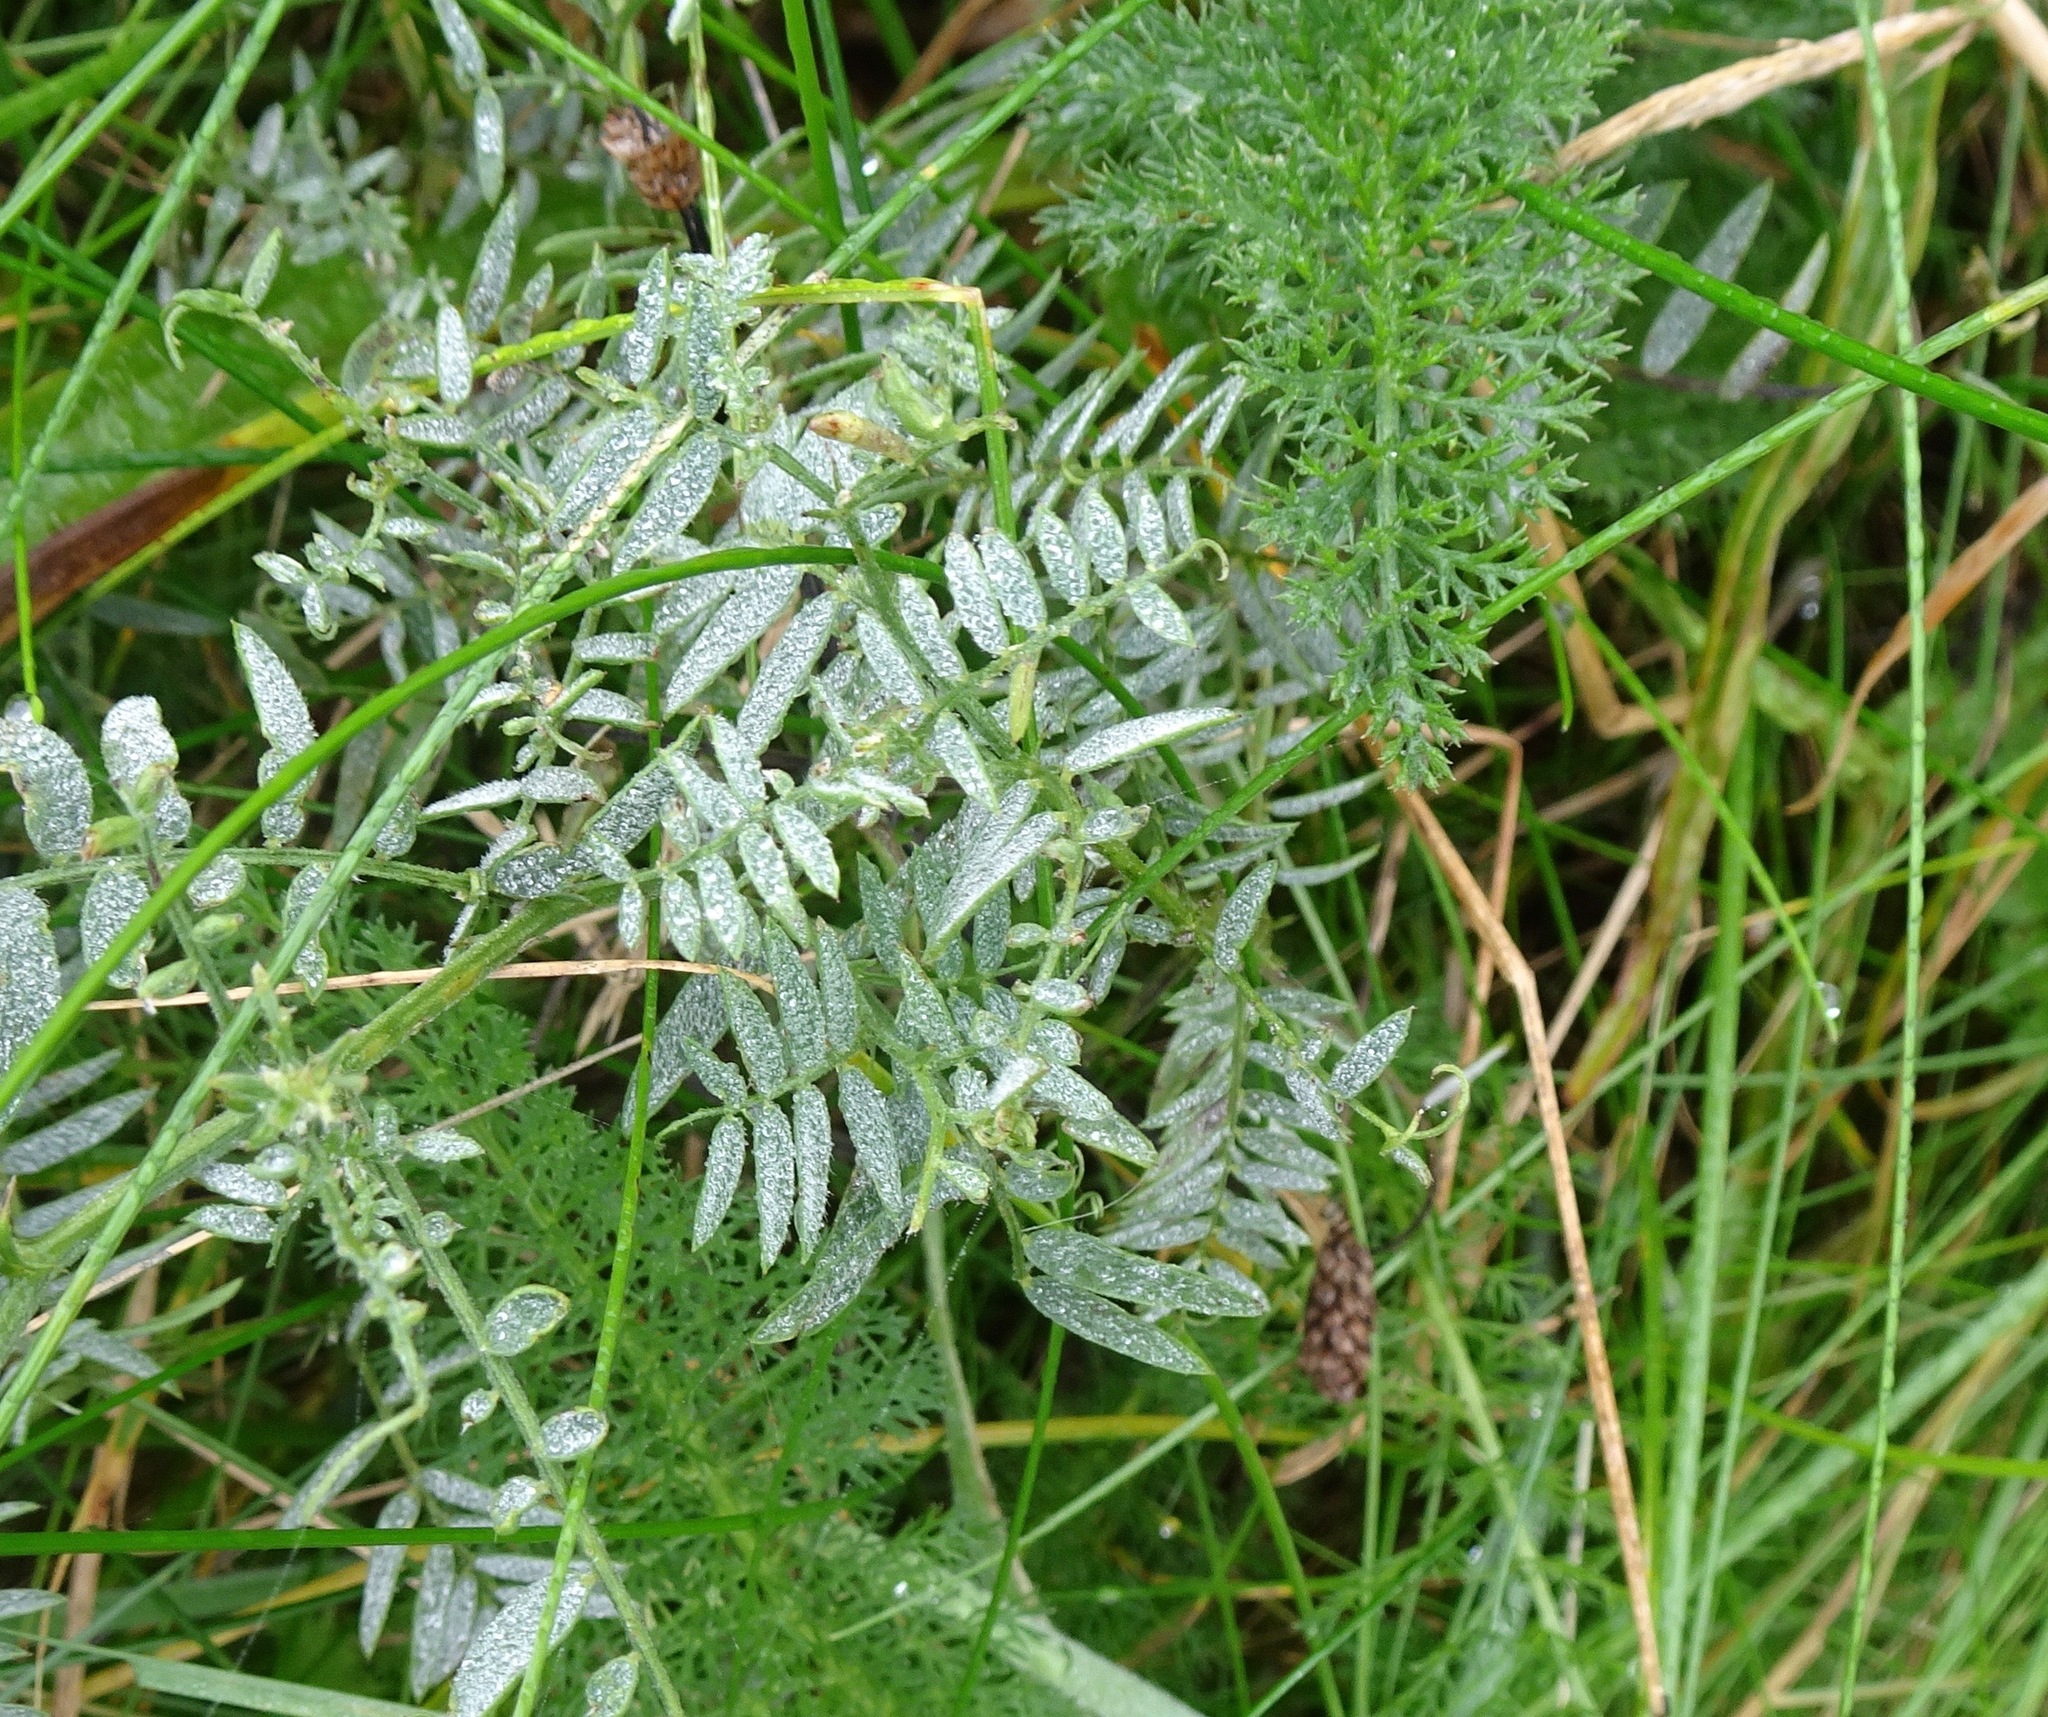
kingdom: Plantae
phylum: Tracheophyta
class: Magnoliopsida
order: Fabales
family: Fabaceae
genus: Lathyrus
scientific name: Lathyrus pratensis
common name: Meadow vetchling
